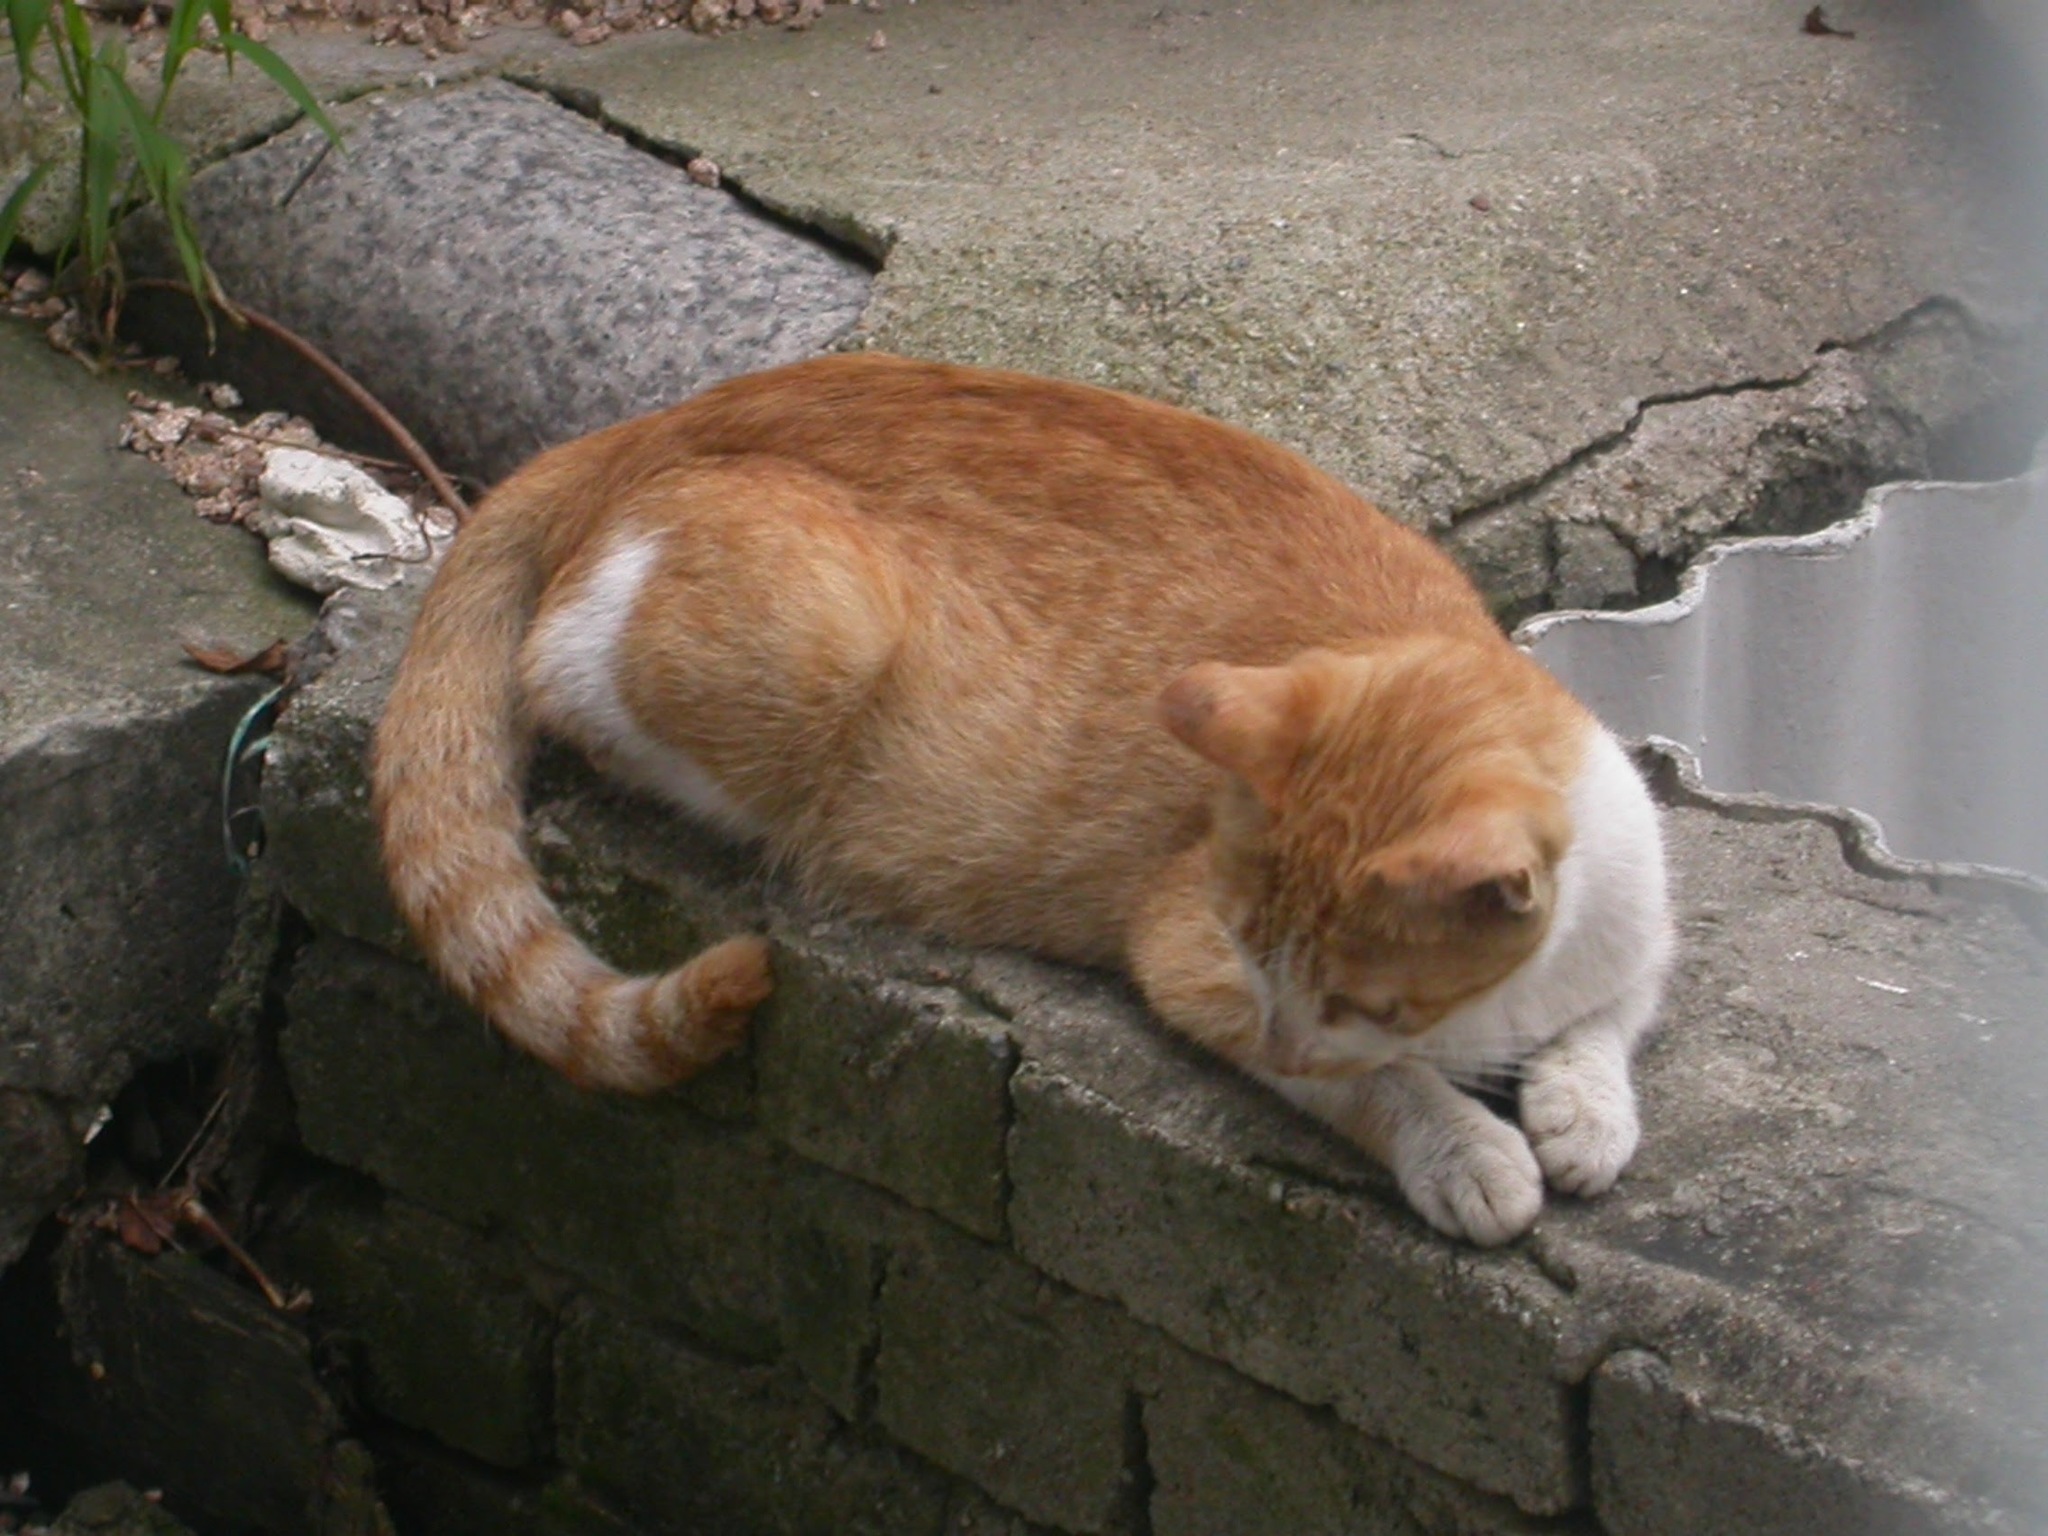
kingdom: Animalia
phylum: Chordata
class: Mammalia
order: Carnivora
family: Felidae
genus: Felis
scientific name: Felis catus
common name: Domestic cat
